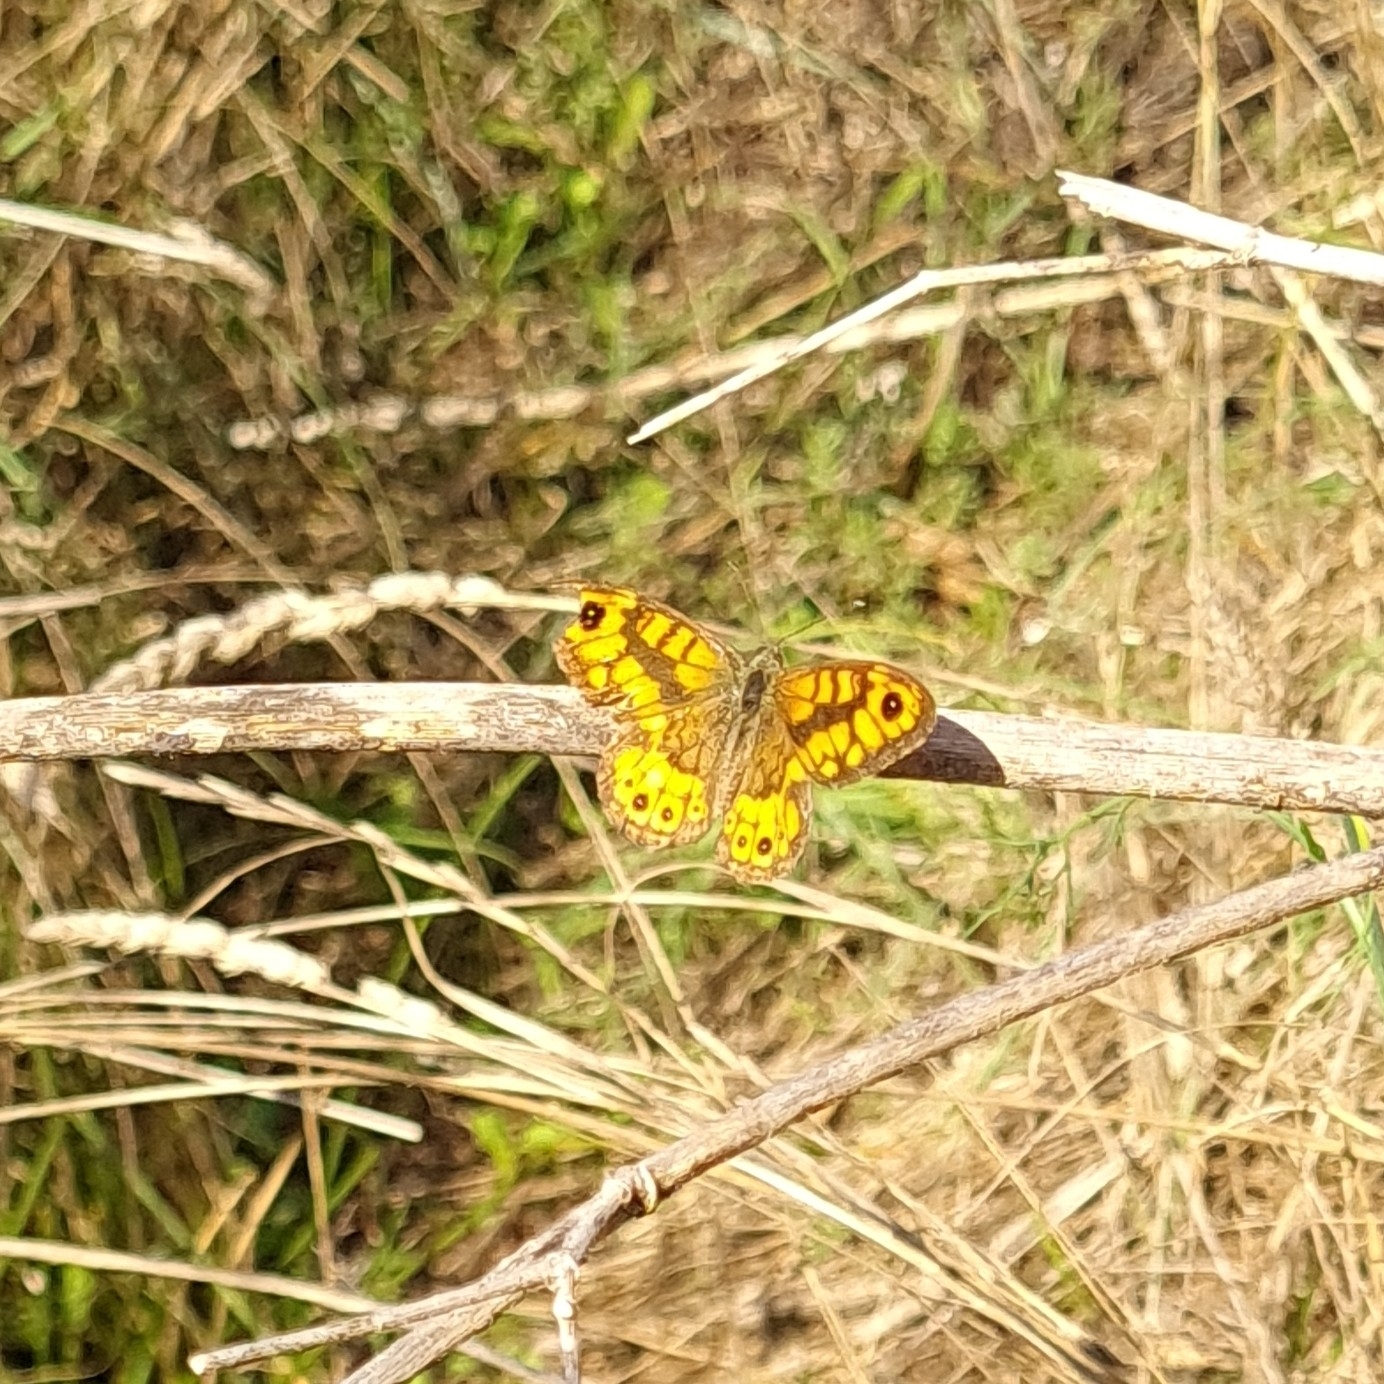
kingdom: Animalia
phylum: Arthropoda
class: Insecta
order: Lepidoptera
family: Nymphalidae
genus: Pararge
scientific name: Pararge Lasiommata megera
